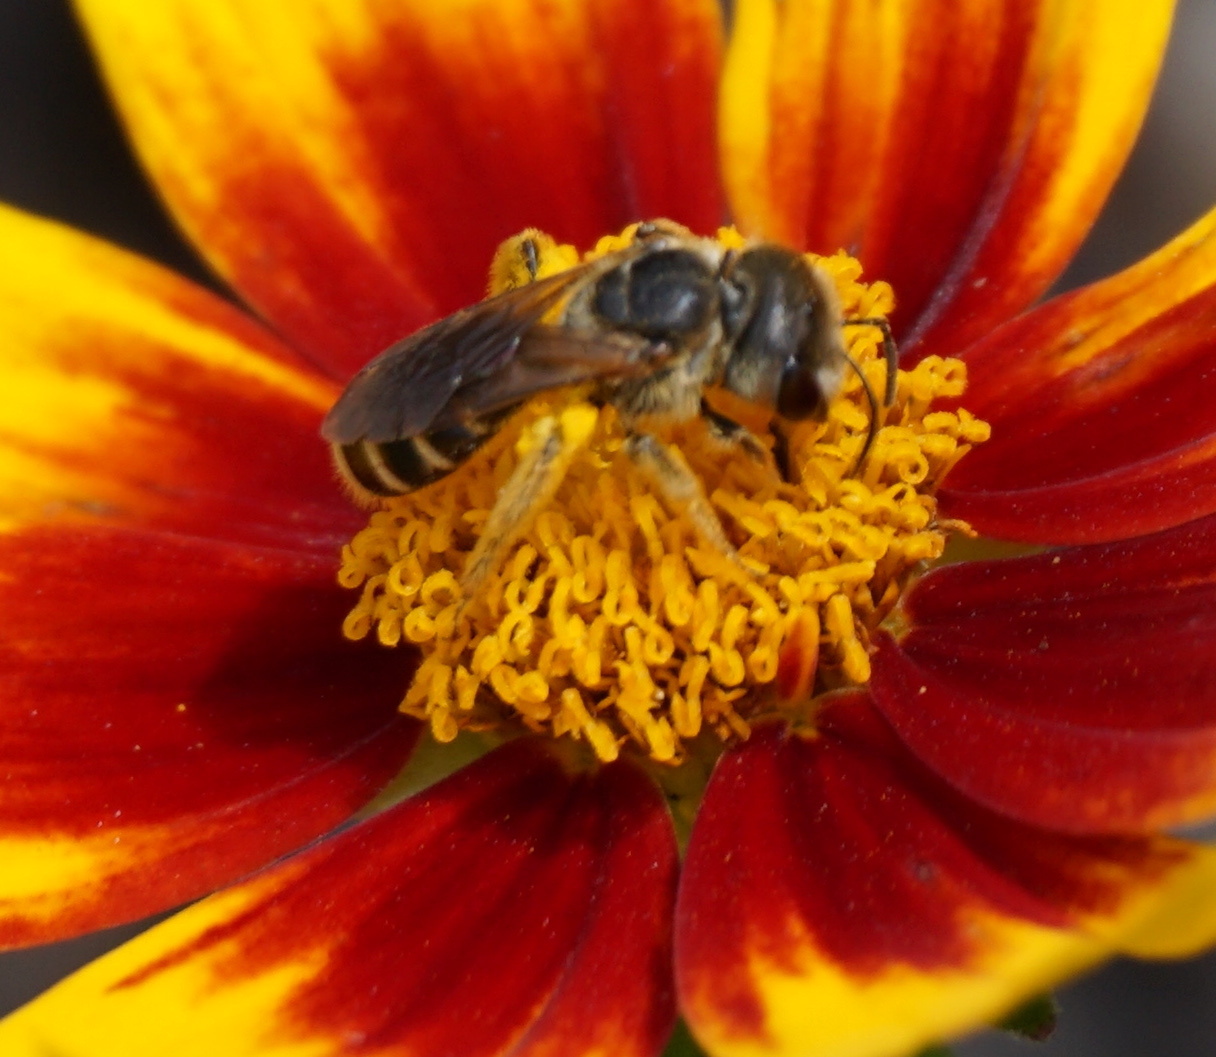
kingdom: Animalia
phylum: Arthropoda
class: Insecta
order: Hymenoptera
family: Halictidae
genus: Halictus
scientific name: Halictus poeyi
